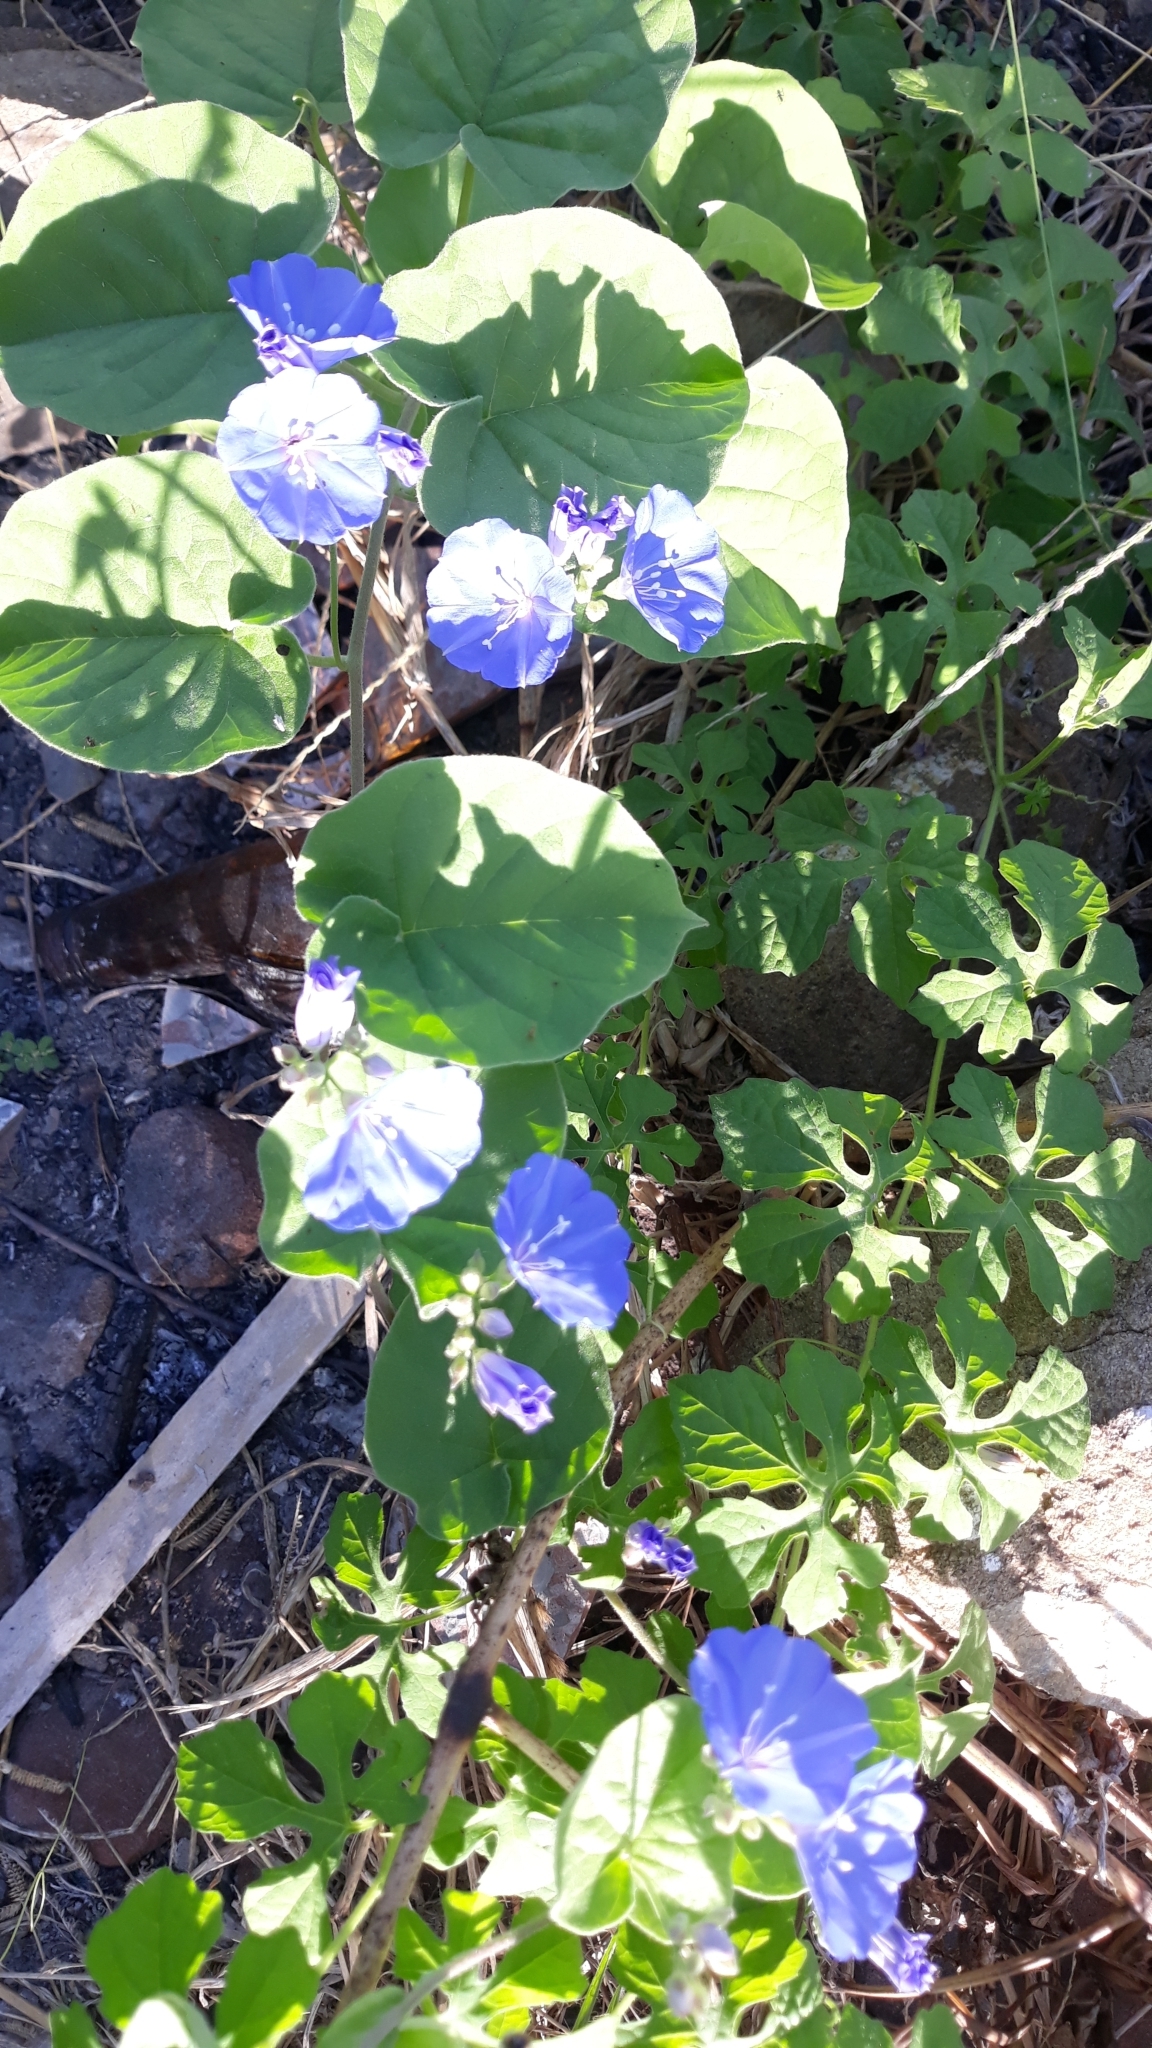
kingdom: Plantae
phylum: Tracheophyta
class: Magnoliopsida
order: Solanales
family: Convolvulaceae
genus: Jacquemontia
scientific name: Jacquemontia unilateralis
